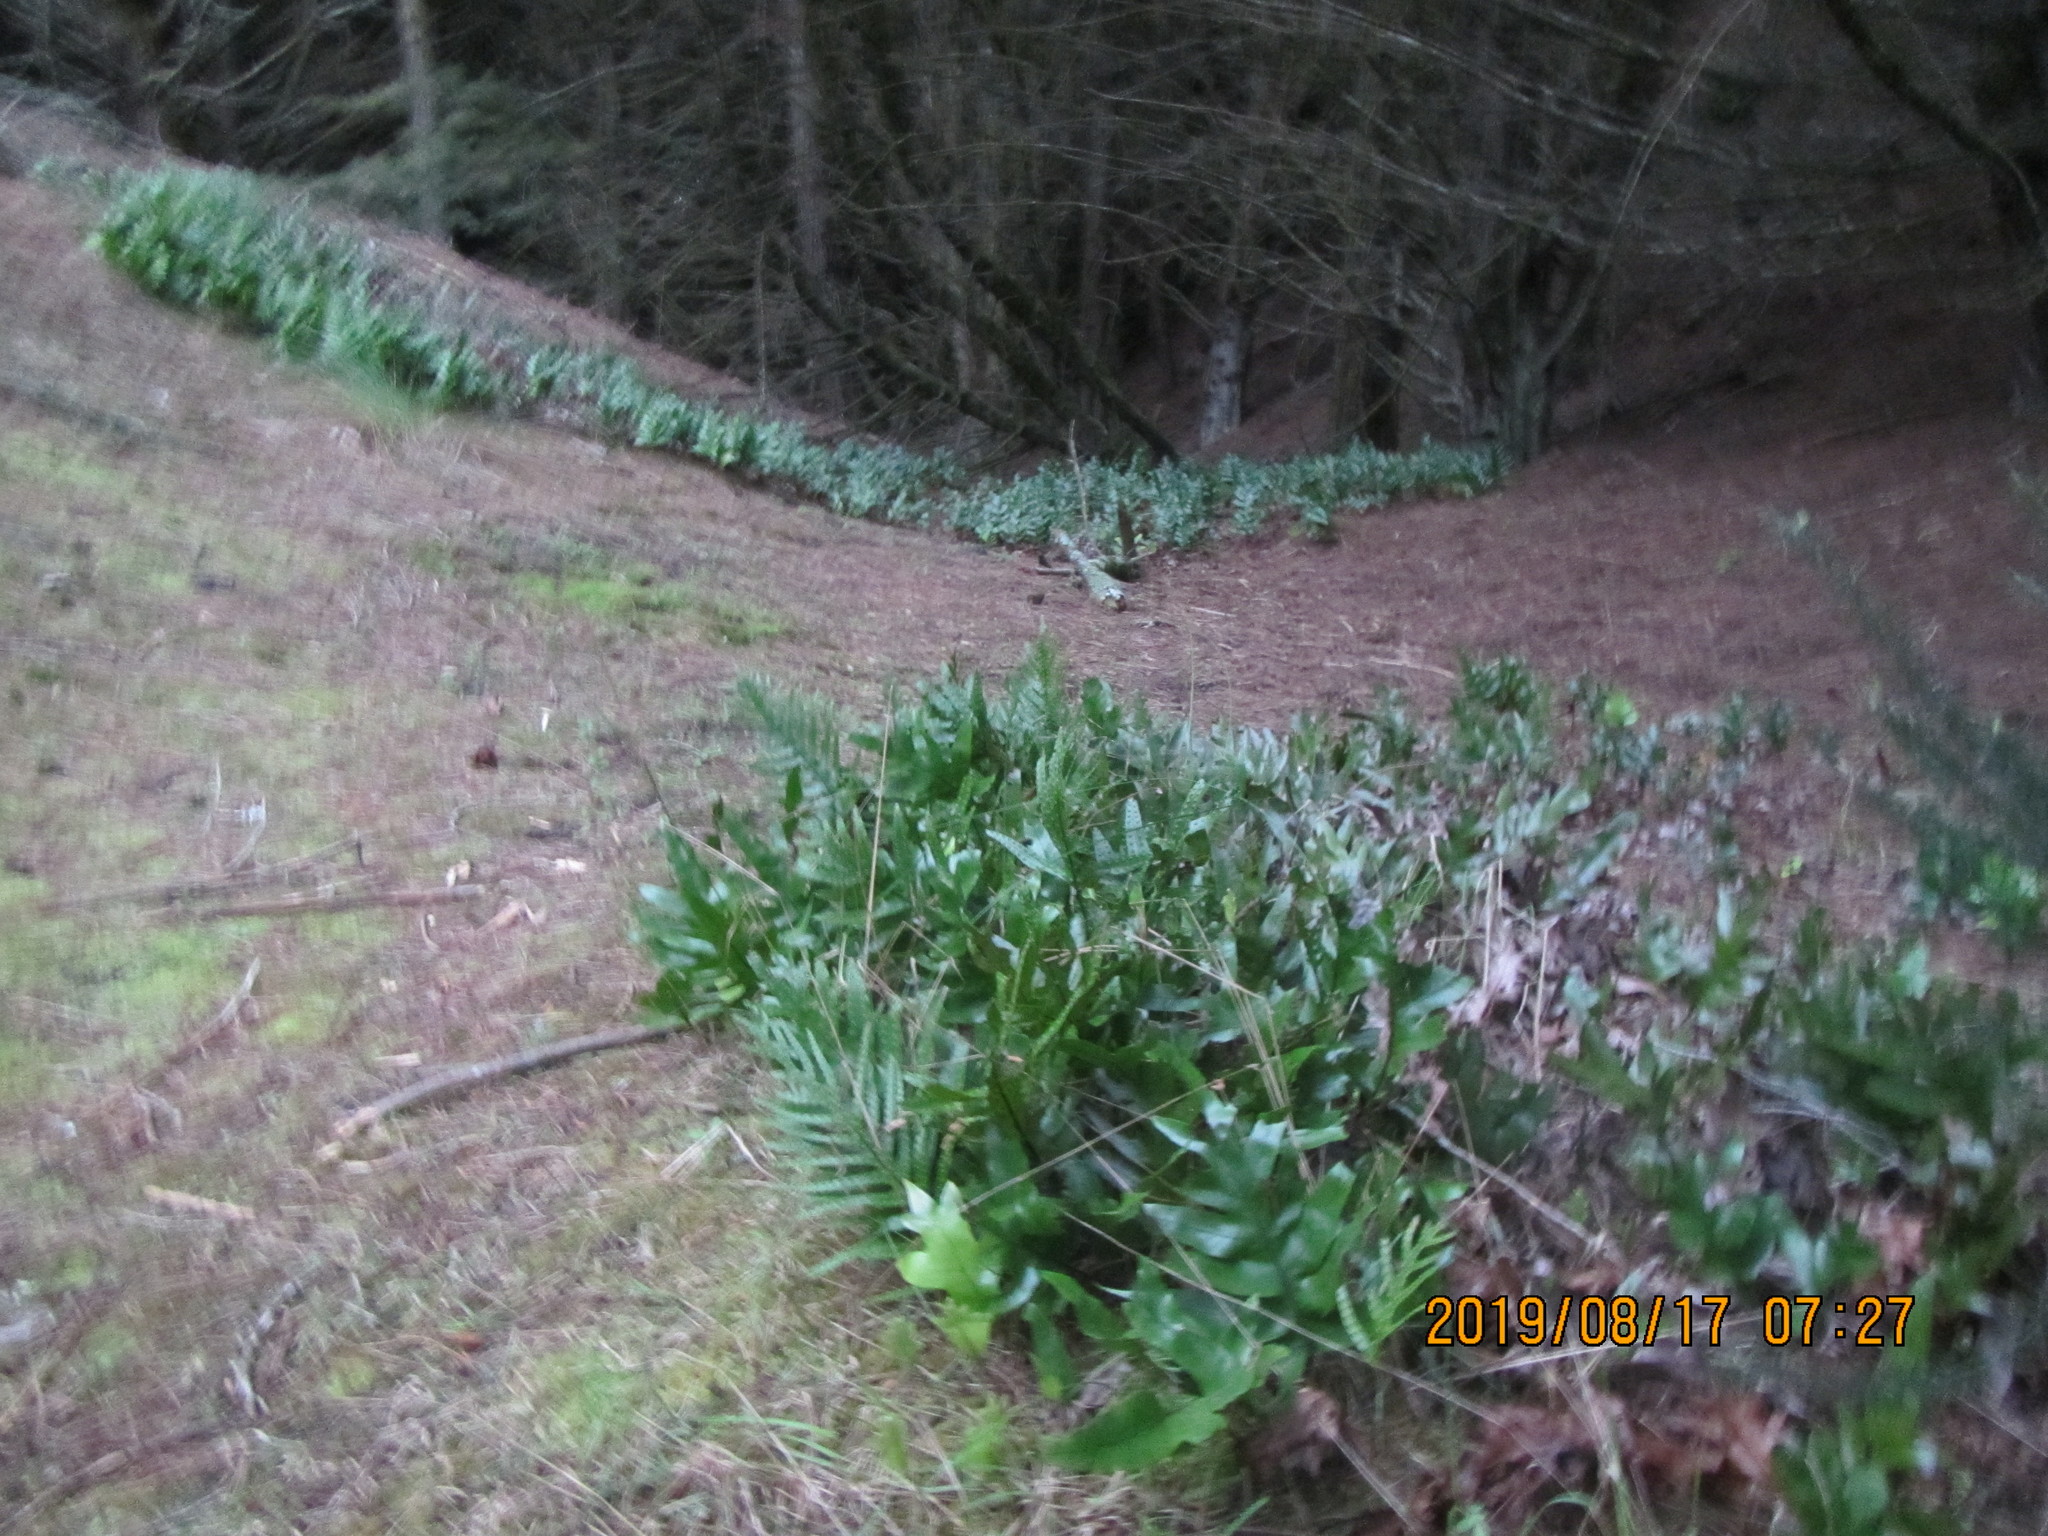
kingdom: Plantae
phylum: Tracheophyta
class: Polypodiopsida
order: Polypodiales
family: Polypodiaceae
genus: Lecanopteris
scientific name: Lecanopteris pustulata
